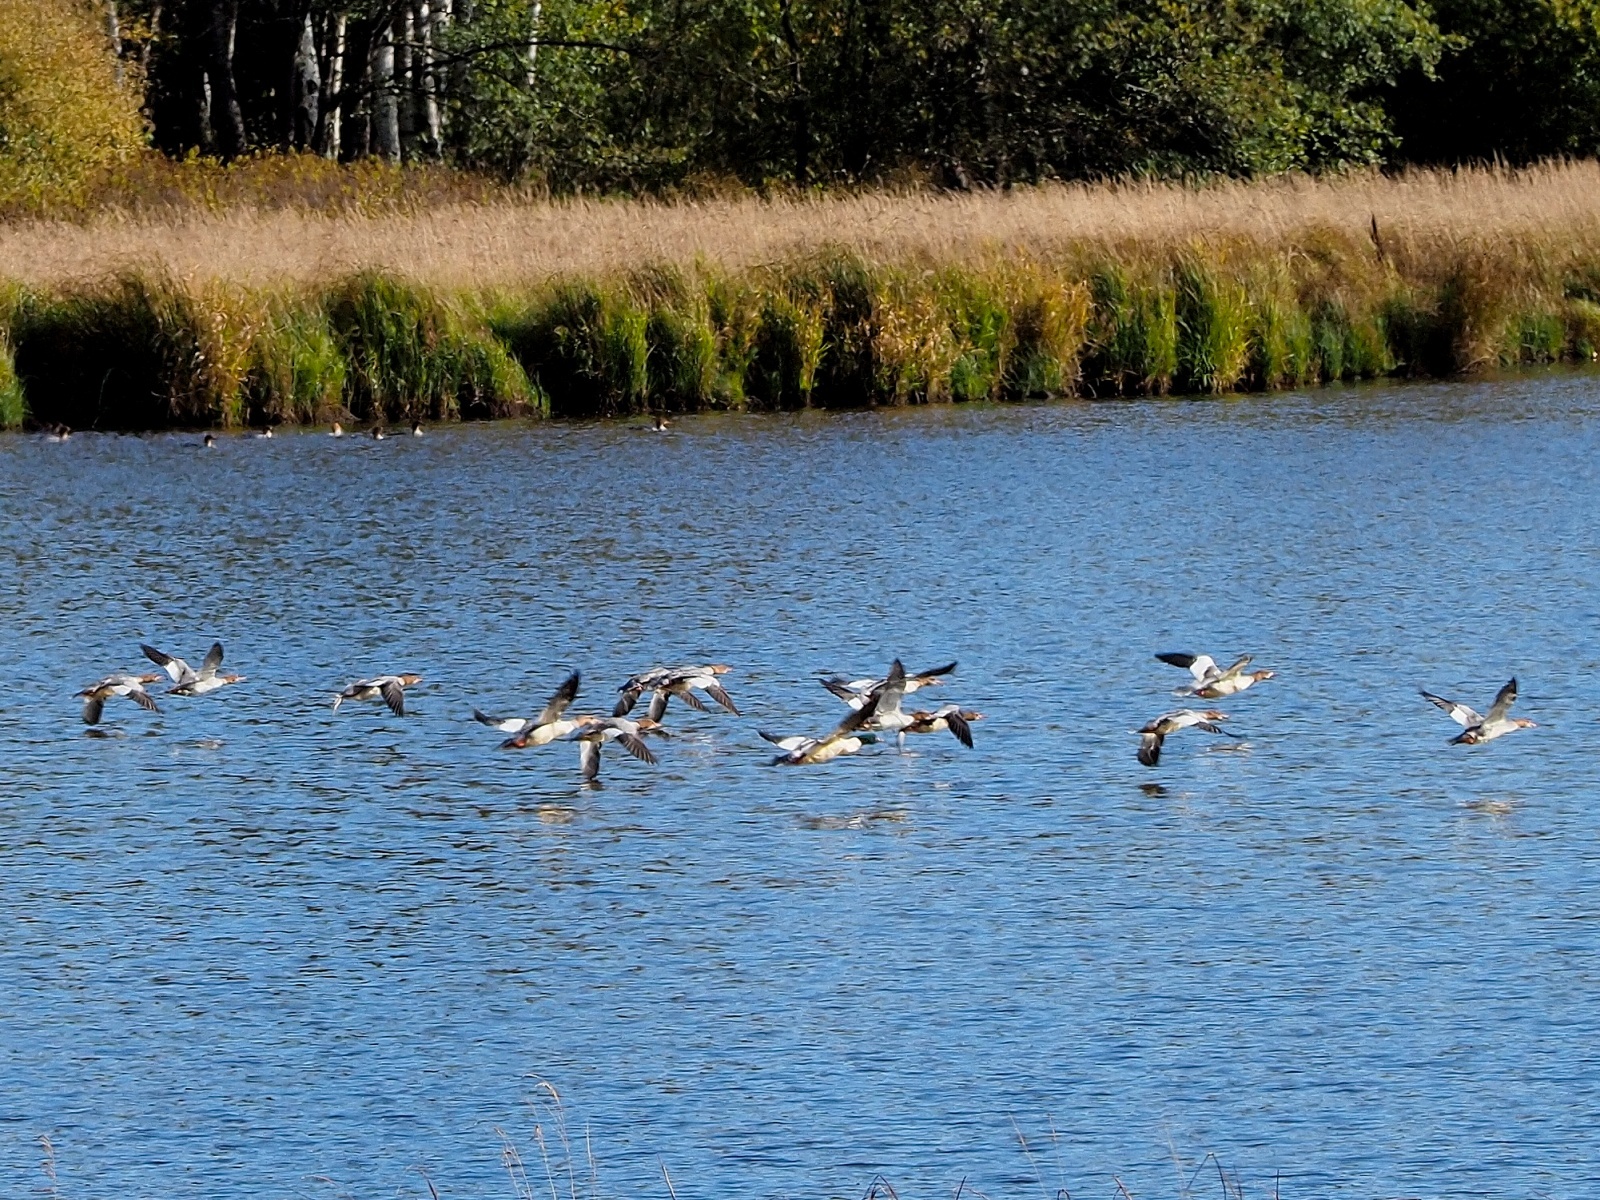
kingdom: Animalia
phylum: Chordata
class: Aves
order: Anseriformes
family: Anatidae
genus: Mergus
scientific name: Mergus merganser
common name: Common merganser
